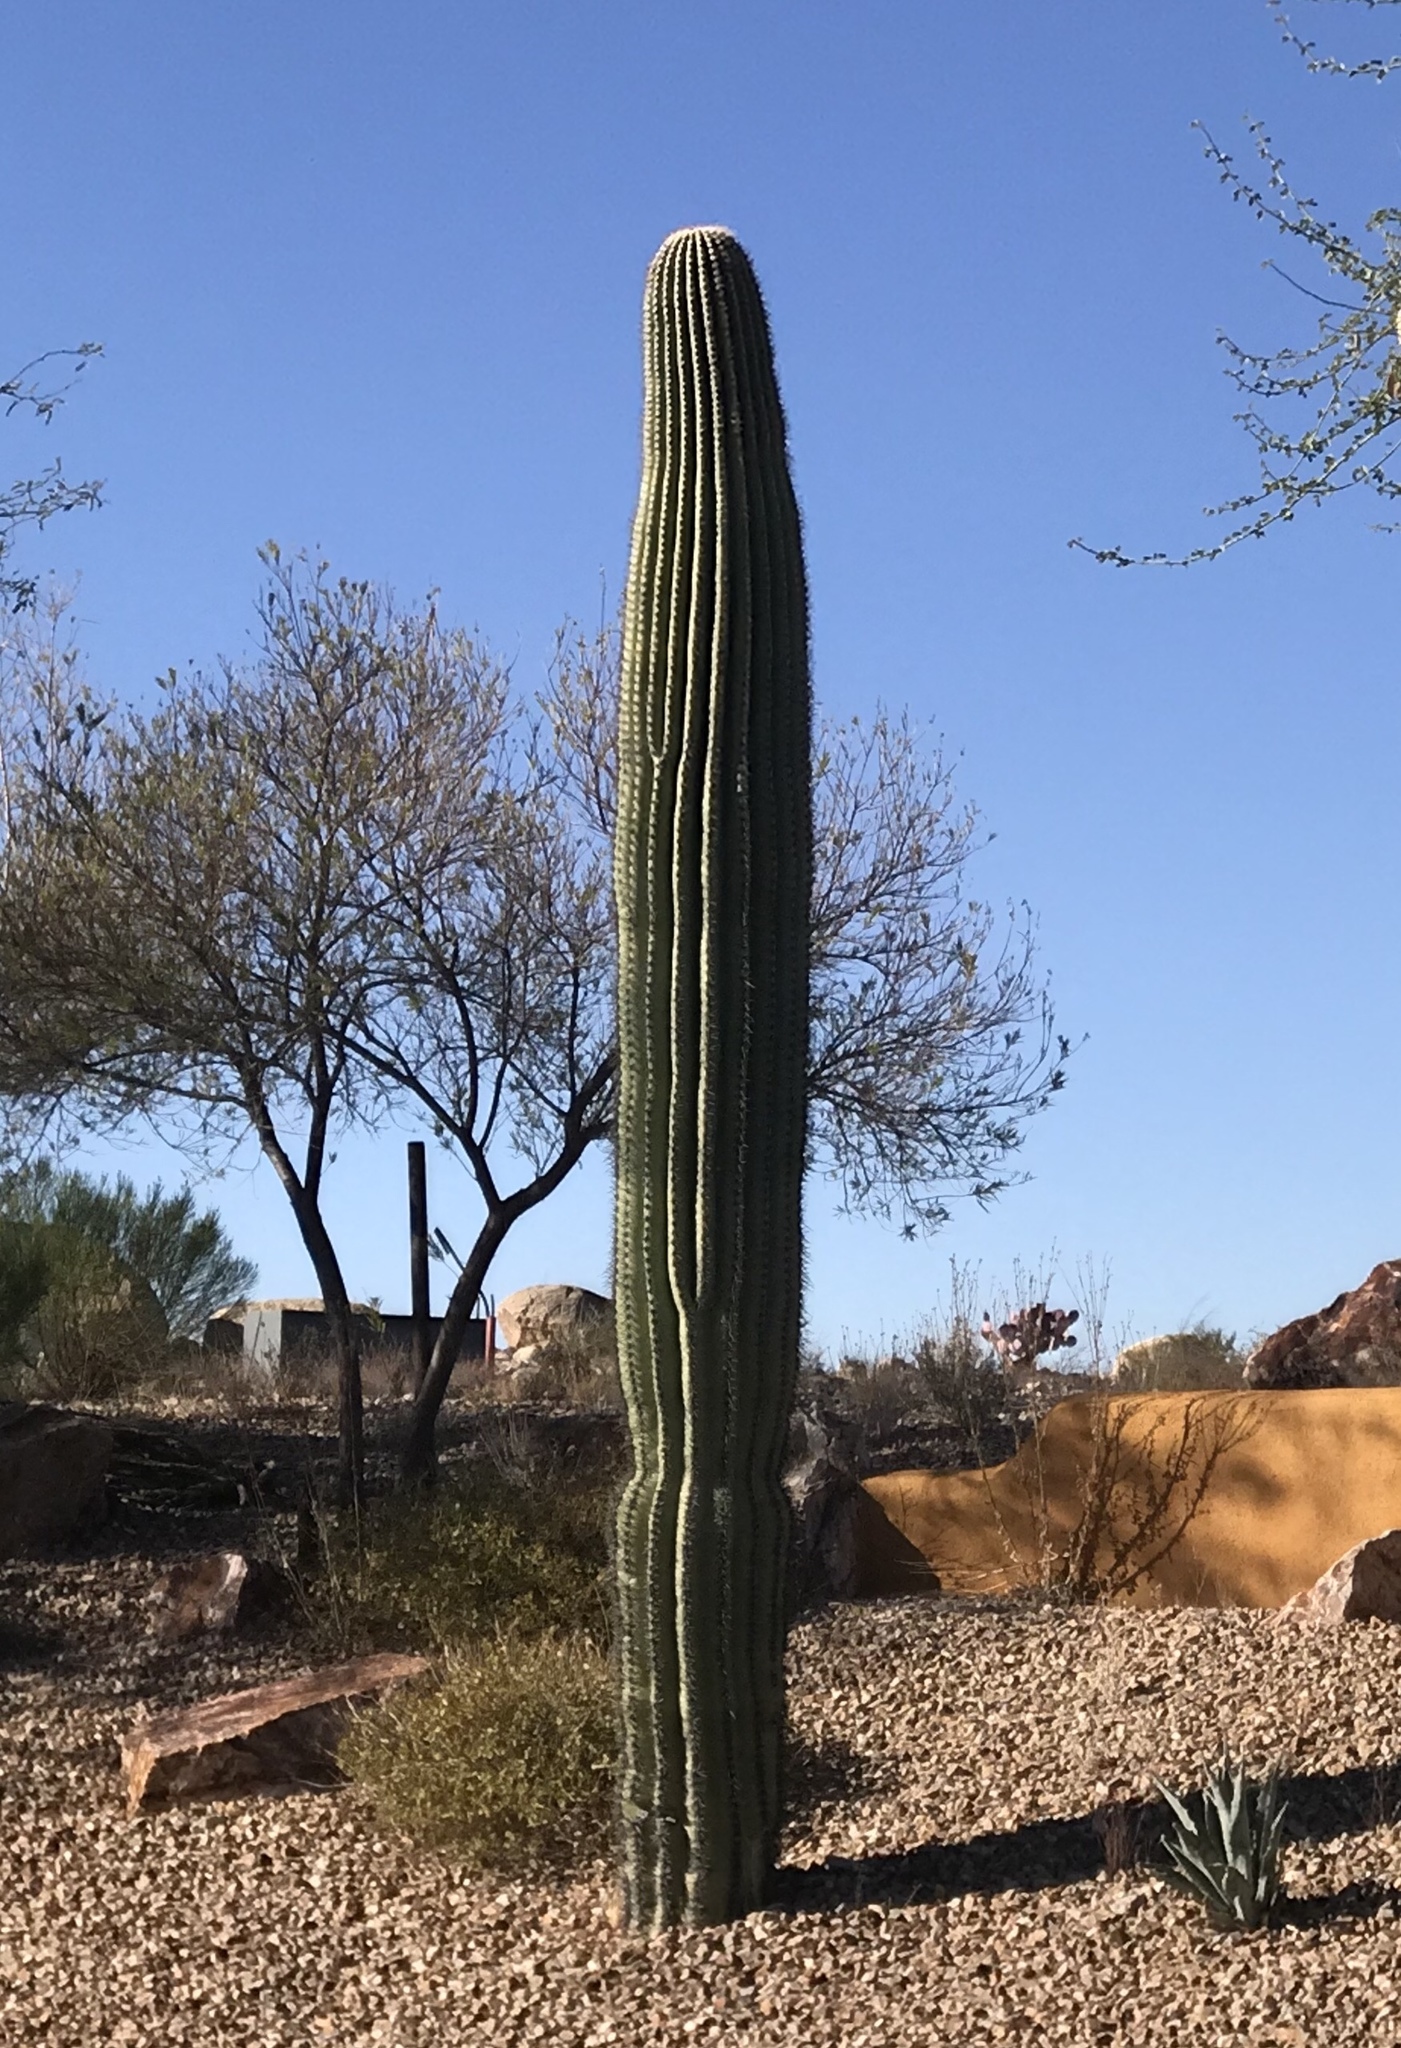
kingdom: Plantae
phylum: Tracheophyta
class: Magnoliopsida
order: Caryophyllales
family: Cactaceae
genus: Carnegiea
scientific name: Carnegiea gigantea
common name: Saguaro
